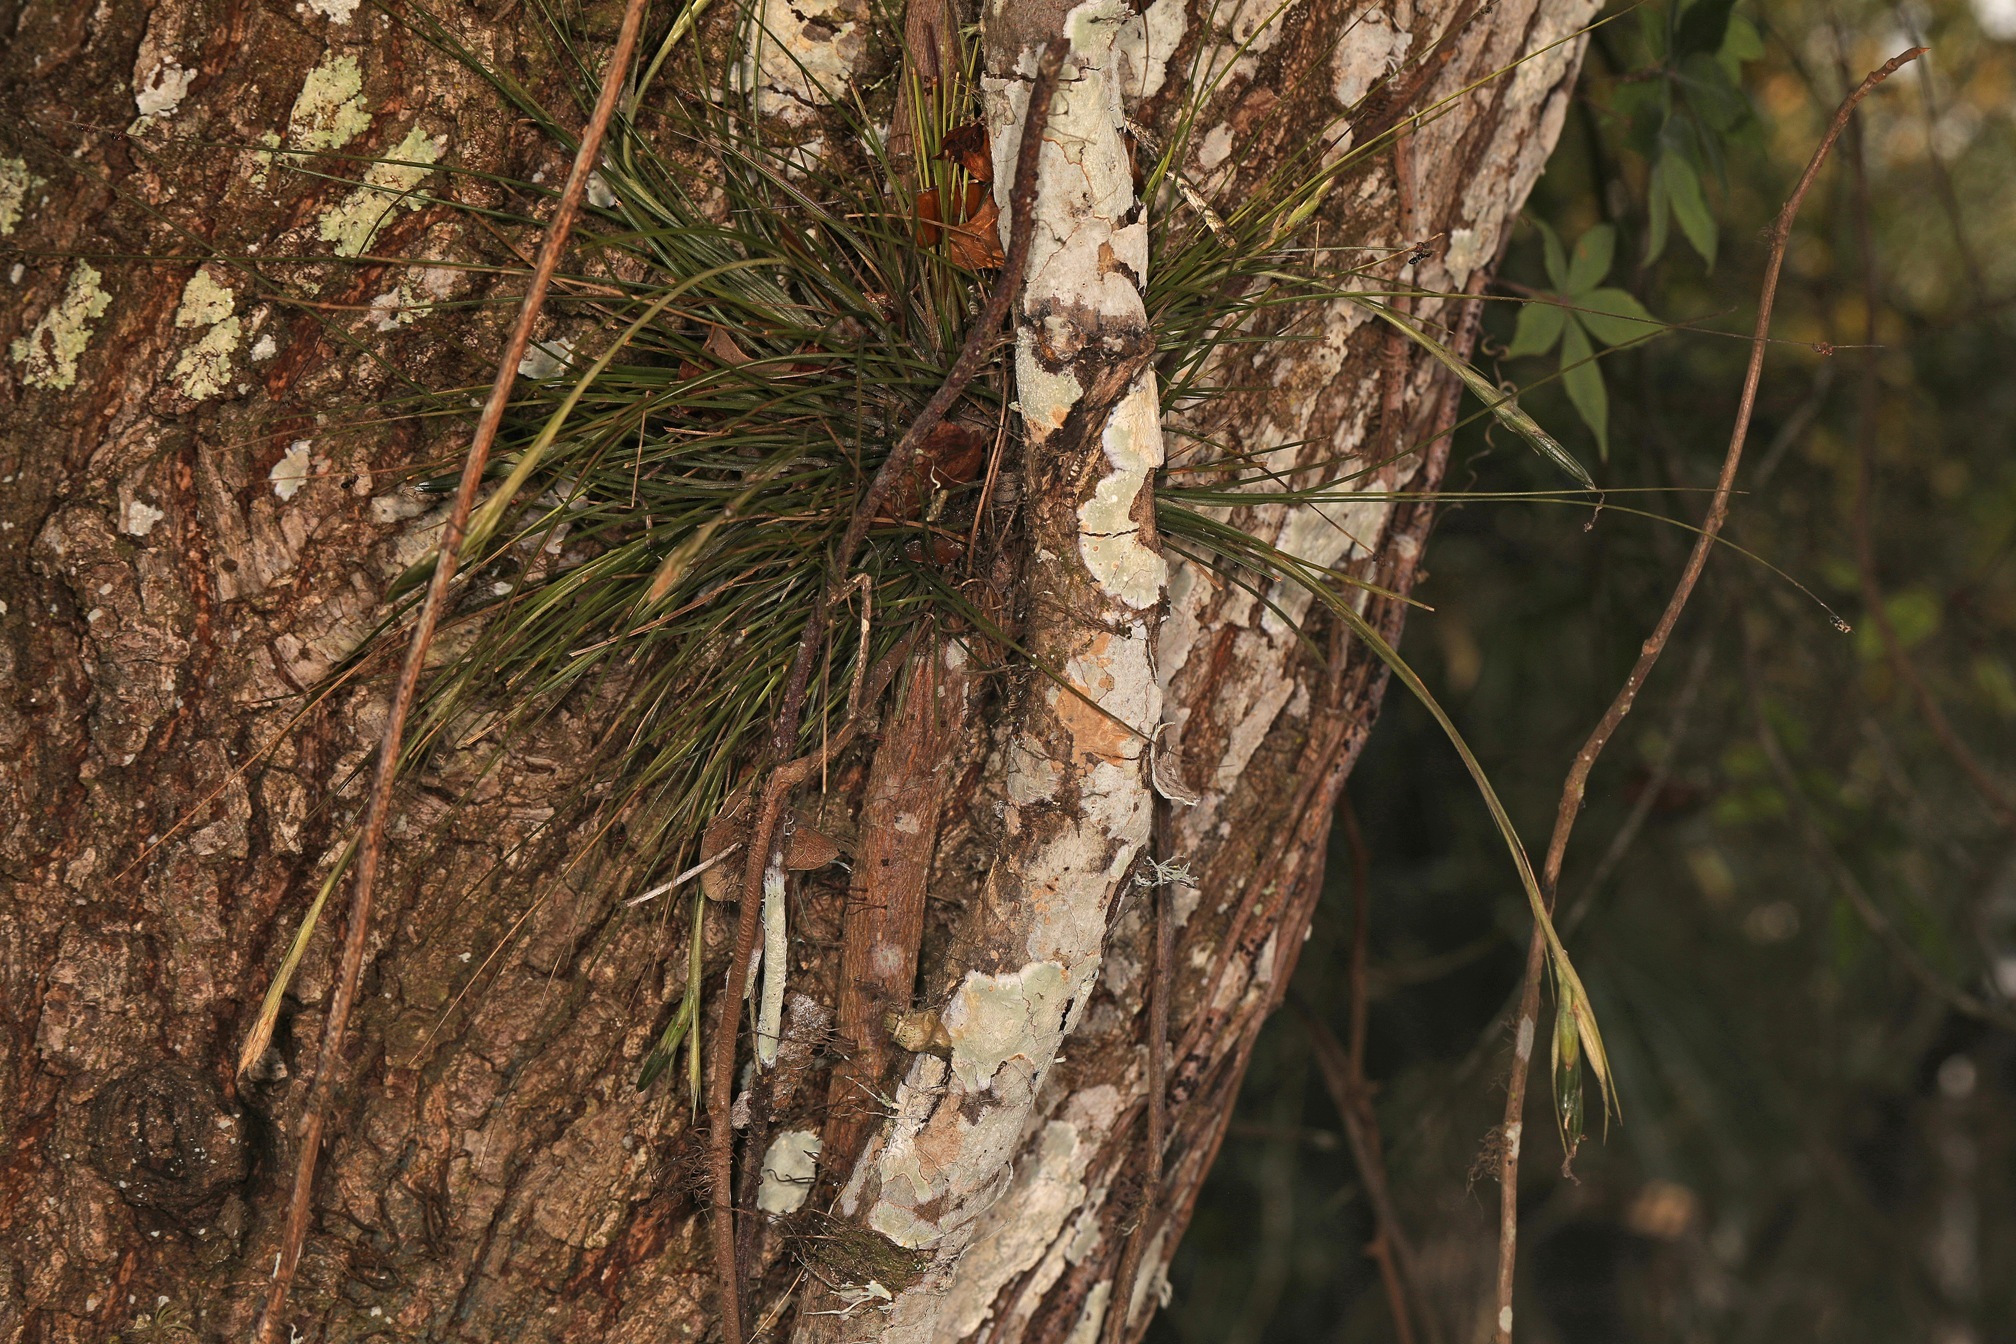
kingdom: Plantae
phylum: Tracheophyta
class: Liliopsida
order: Poales
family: Bromeliaceae
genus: Tillandsia
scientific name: Tillandsia setacea
